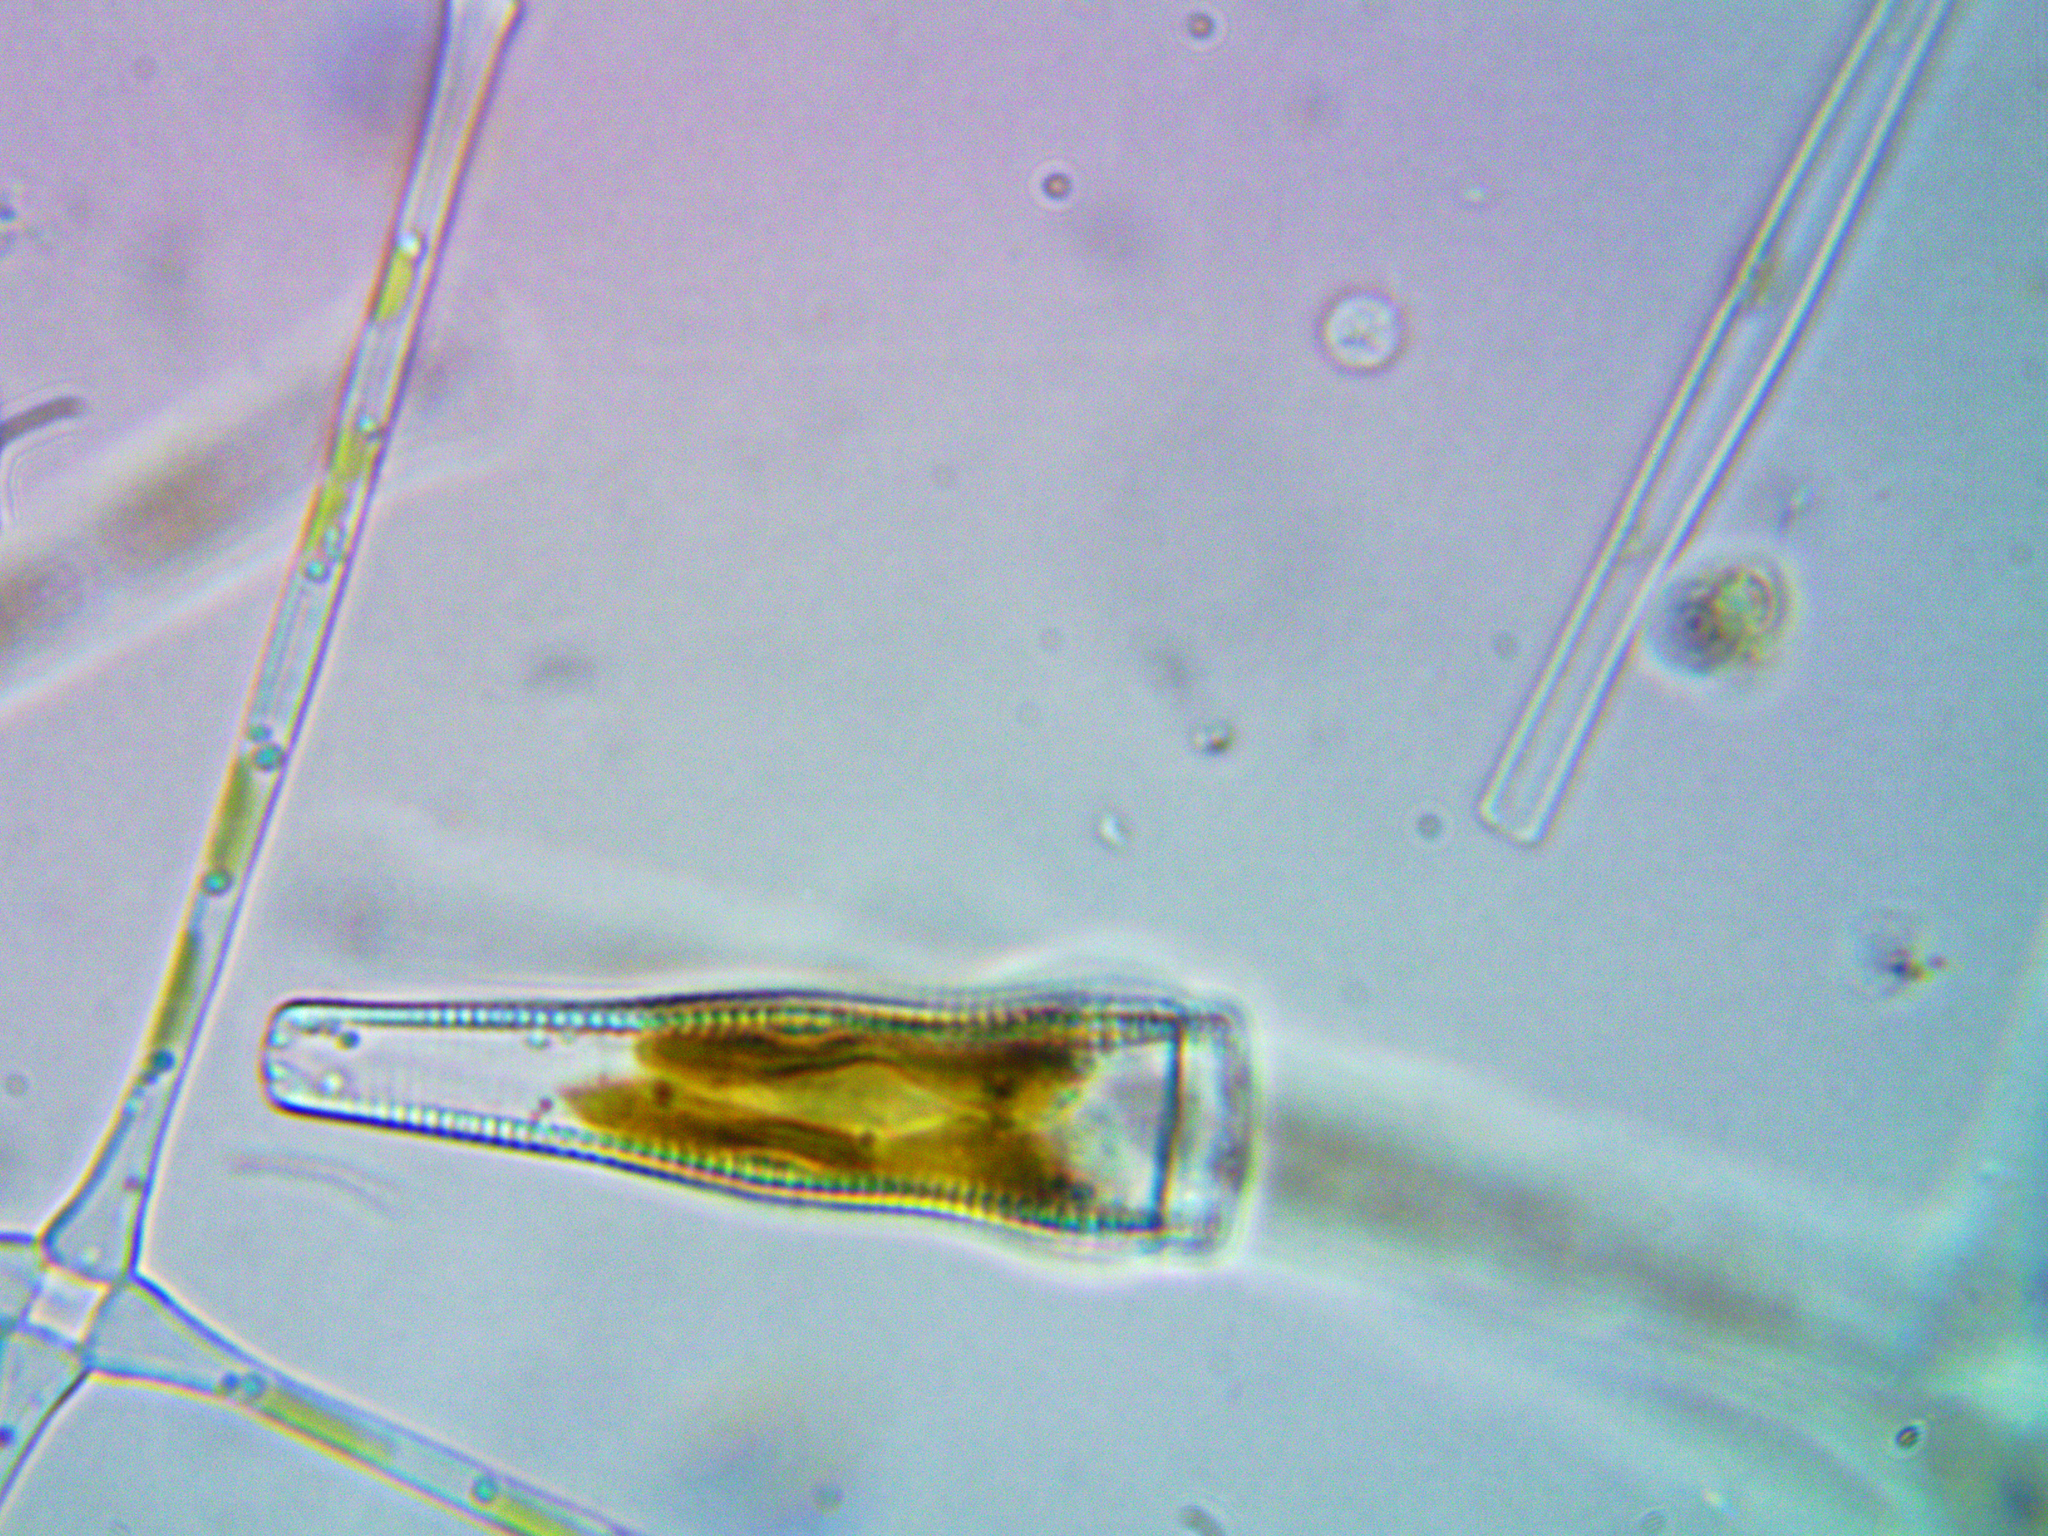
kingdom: Chromista
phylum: Ochrophyta
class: Bacillariophyceae
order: Cymbellales
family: Gomphonemataceae
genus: Gomphonema
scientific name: Gomphonema acuminatum
